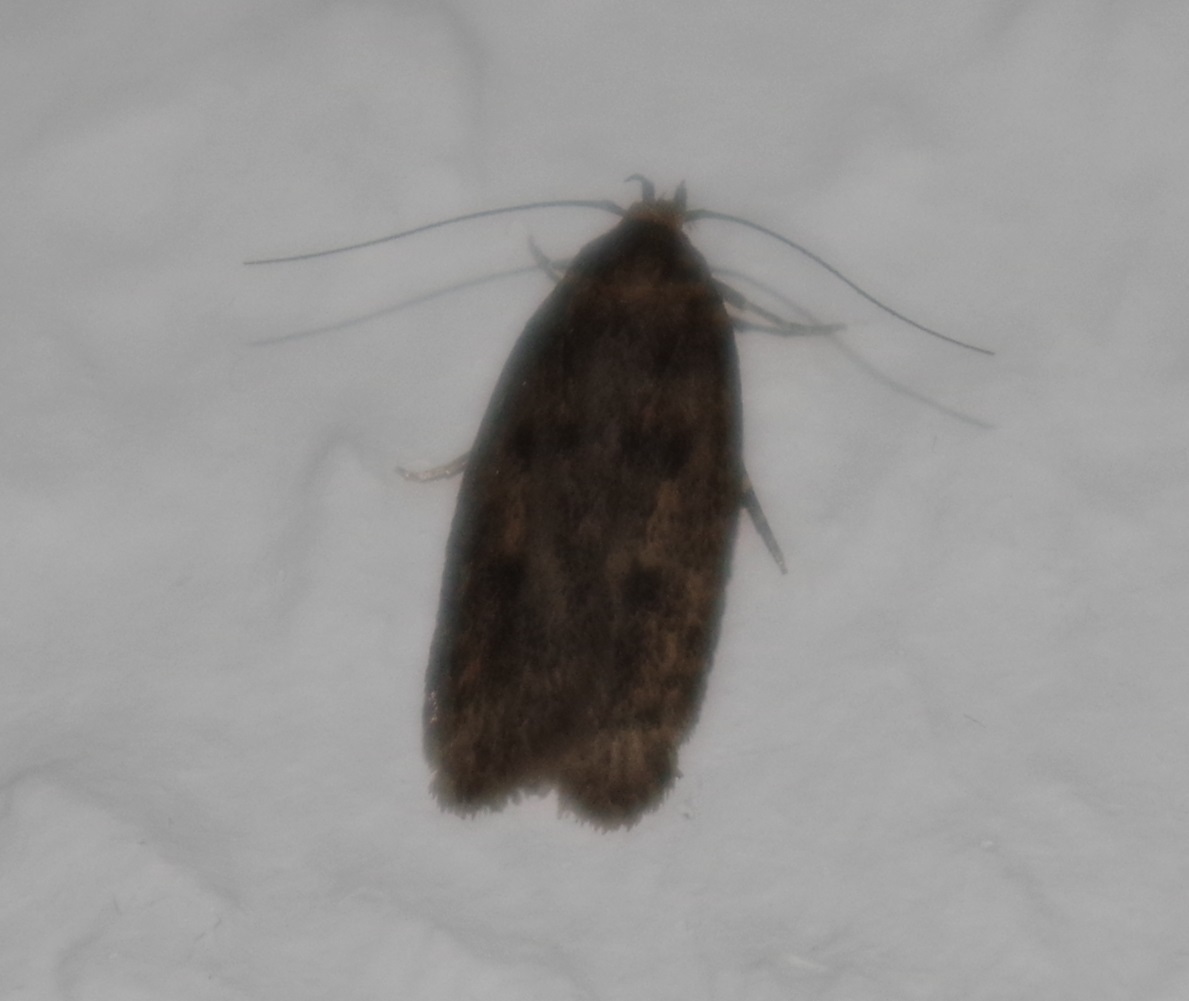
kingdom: Animalia
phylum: Arthropoda
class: Insecta
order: Lepidoptera
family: Oecophoridae
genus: Hofmannophila
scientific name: Hofmannophila pseudospretella
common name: Brown house moth
